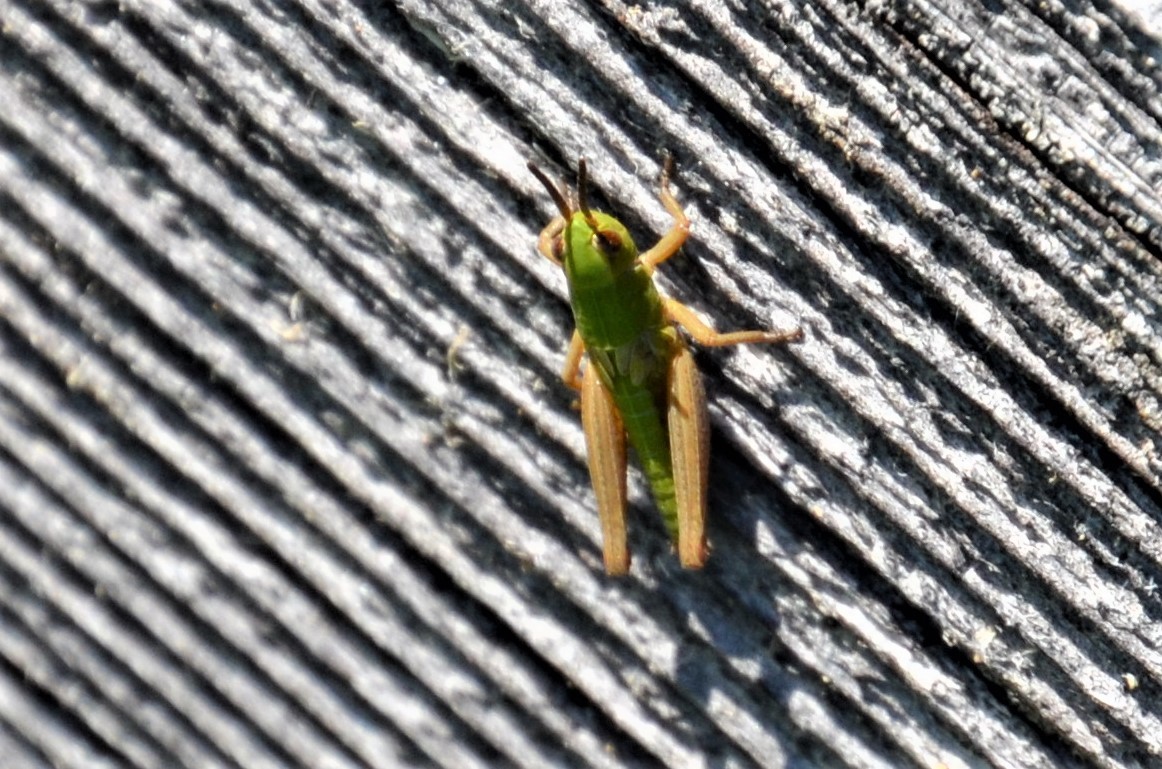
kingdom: Animalia
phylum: Arthropoda
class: Insecta
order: Orthoptera
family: Acrididae
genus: Pseudochorthippus
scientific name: Pseudochorthippus parallelus
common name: Meadow grasshopper
